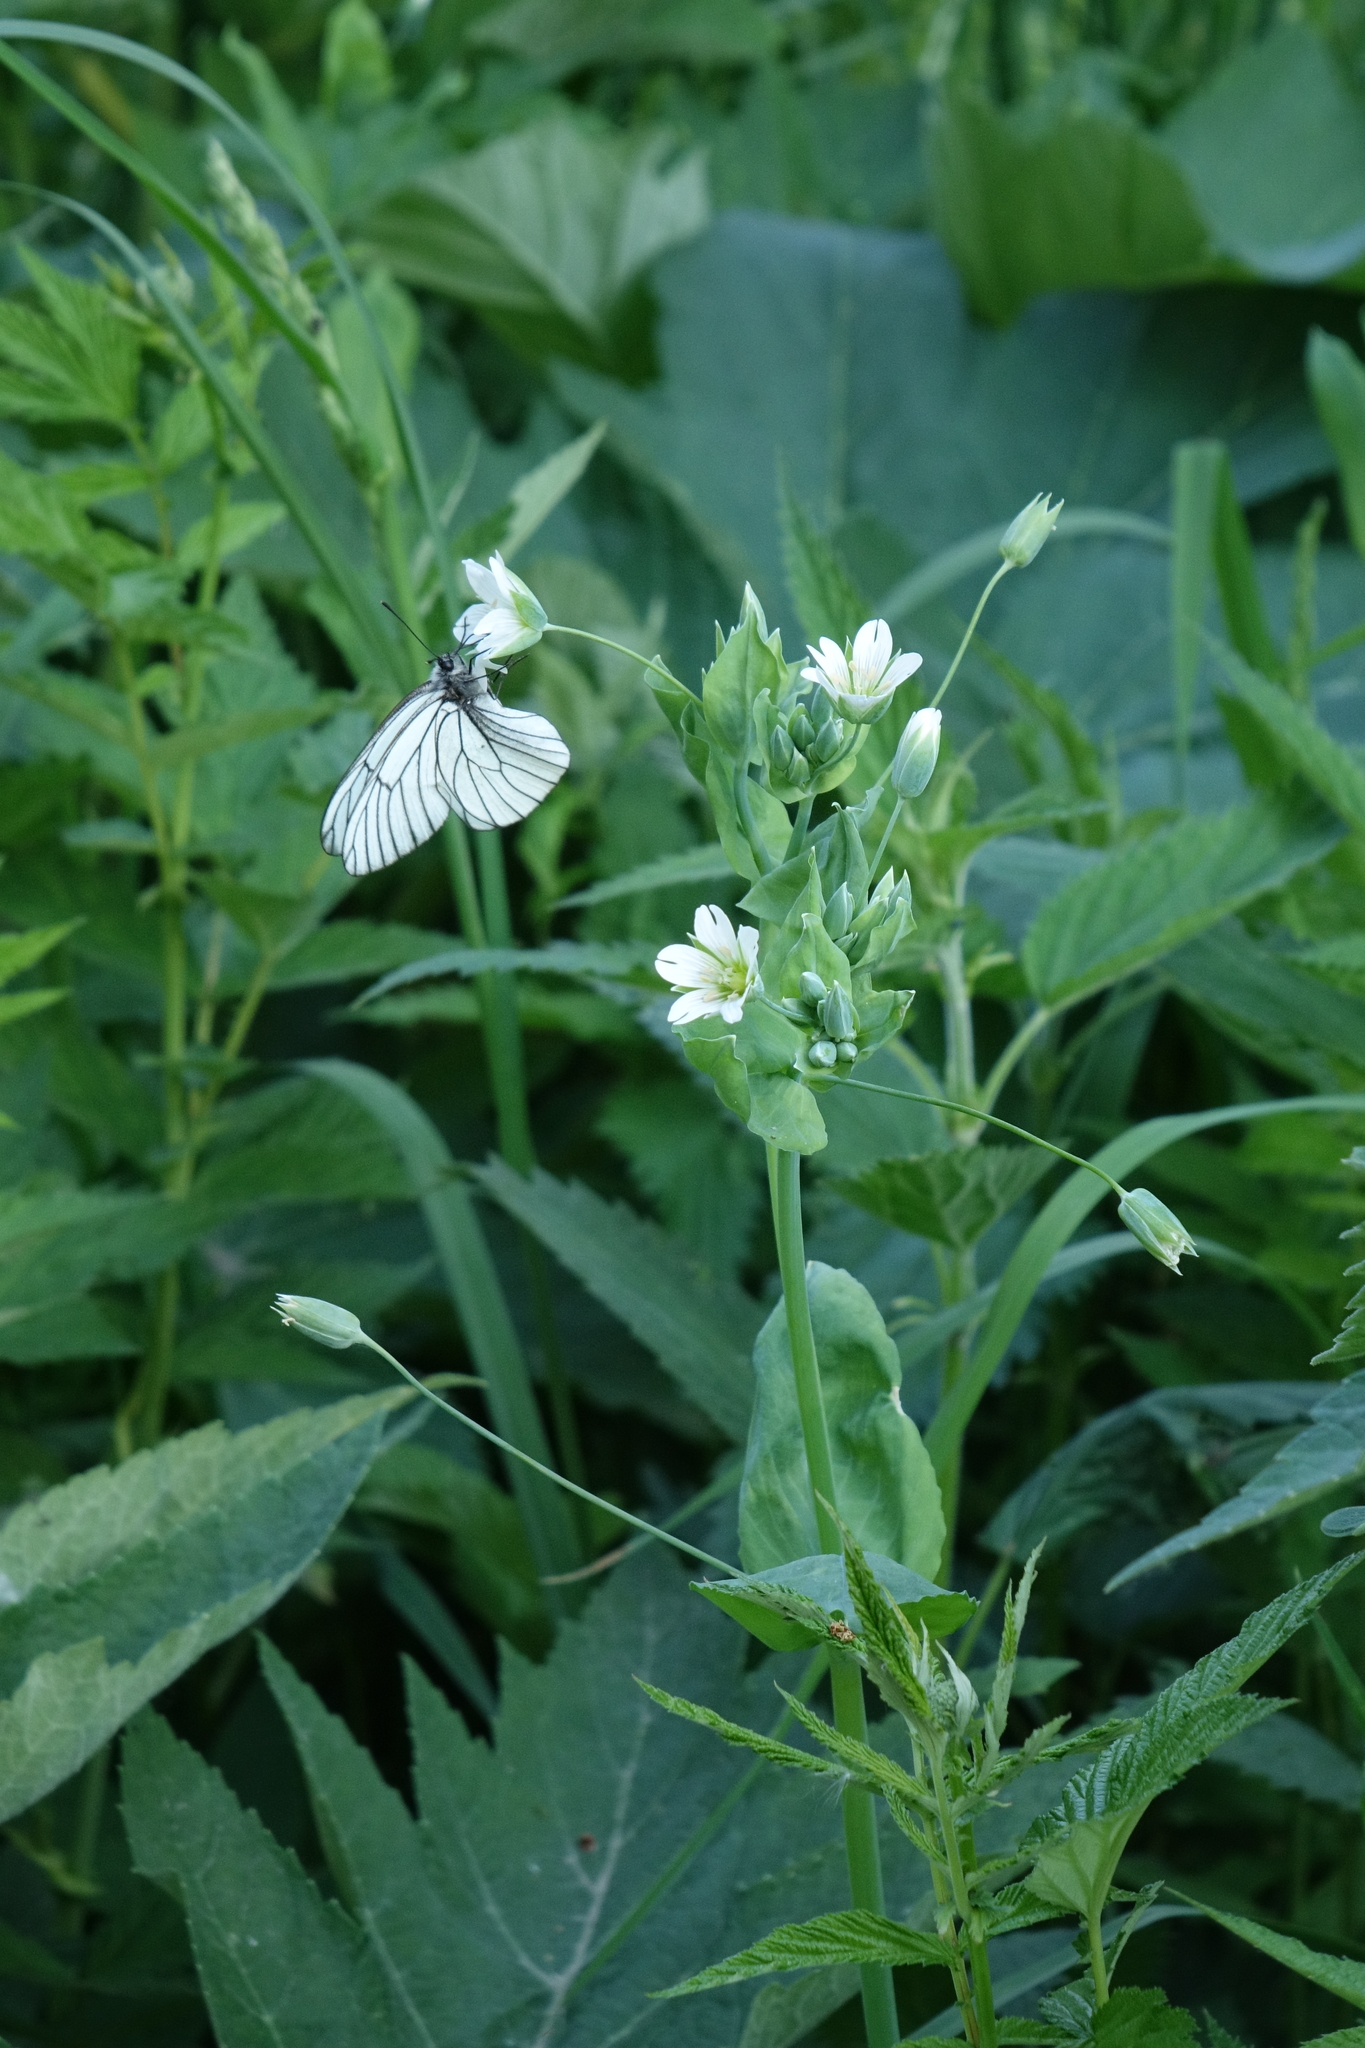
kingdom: Plantae
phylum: Tracheophyta
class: Magnoliopsida
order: Caryophyllales
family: Caryophyllaceae
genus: Cerastium
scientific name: Cerastium davuricum
